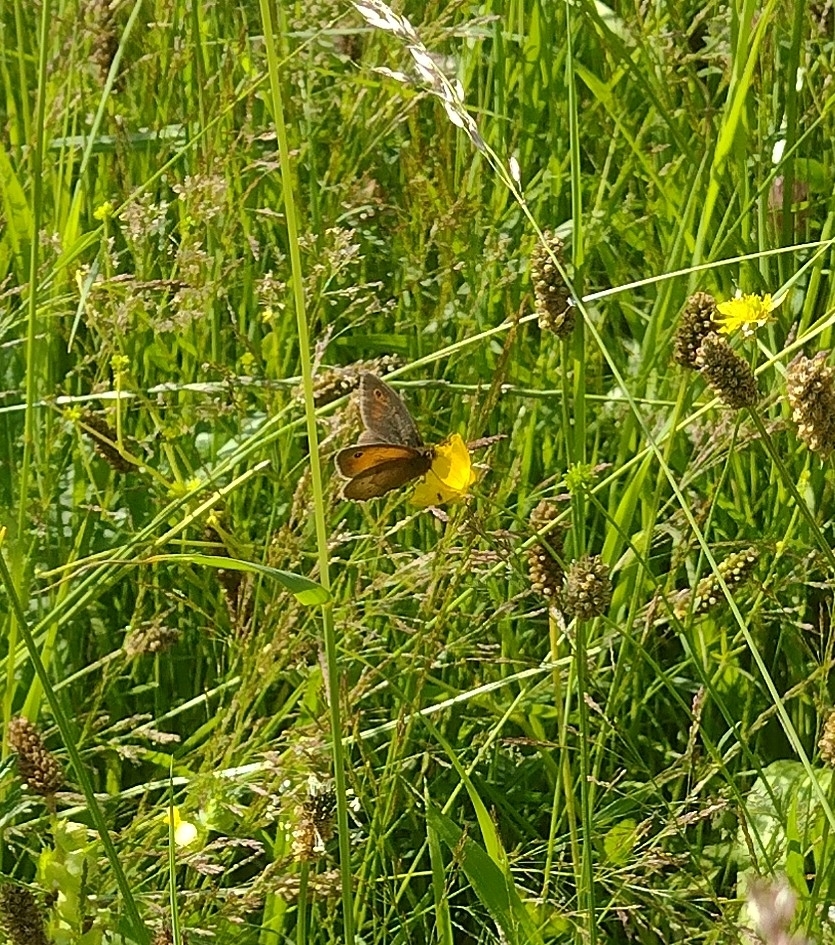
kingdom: Animalia
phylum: Arthropoda
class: Insecta
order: Lepidoptera
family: Nymphalidae
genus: Maniola
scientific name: Maniola jurtina
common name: Meadow brown
